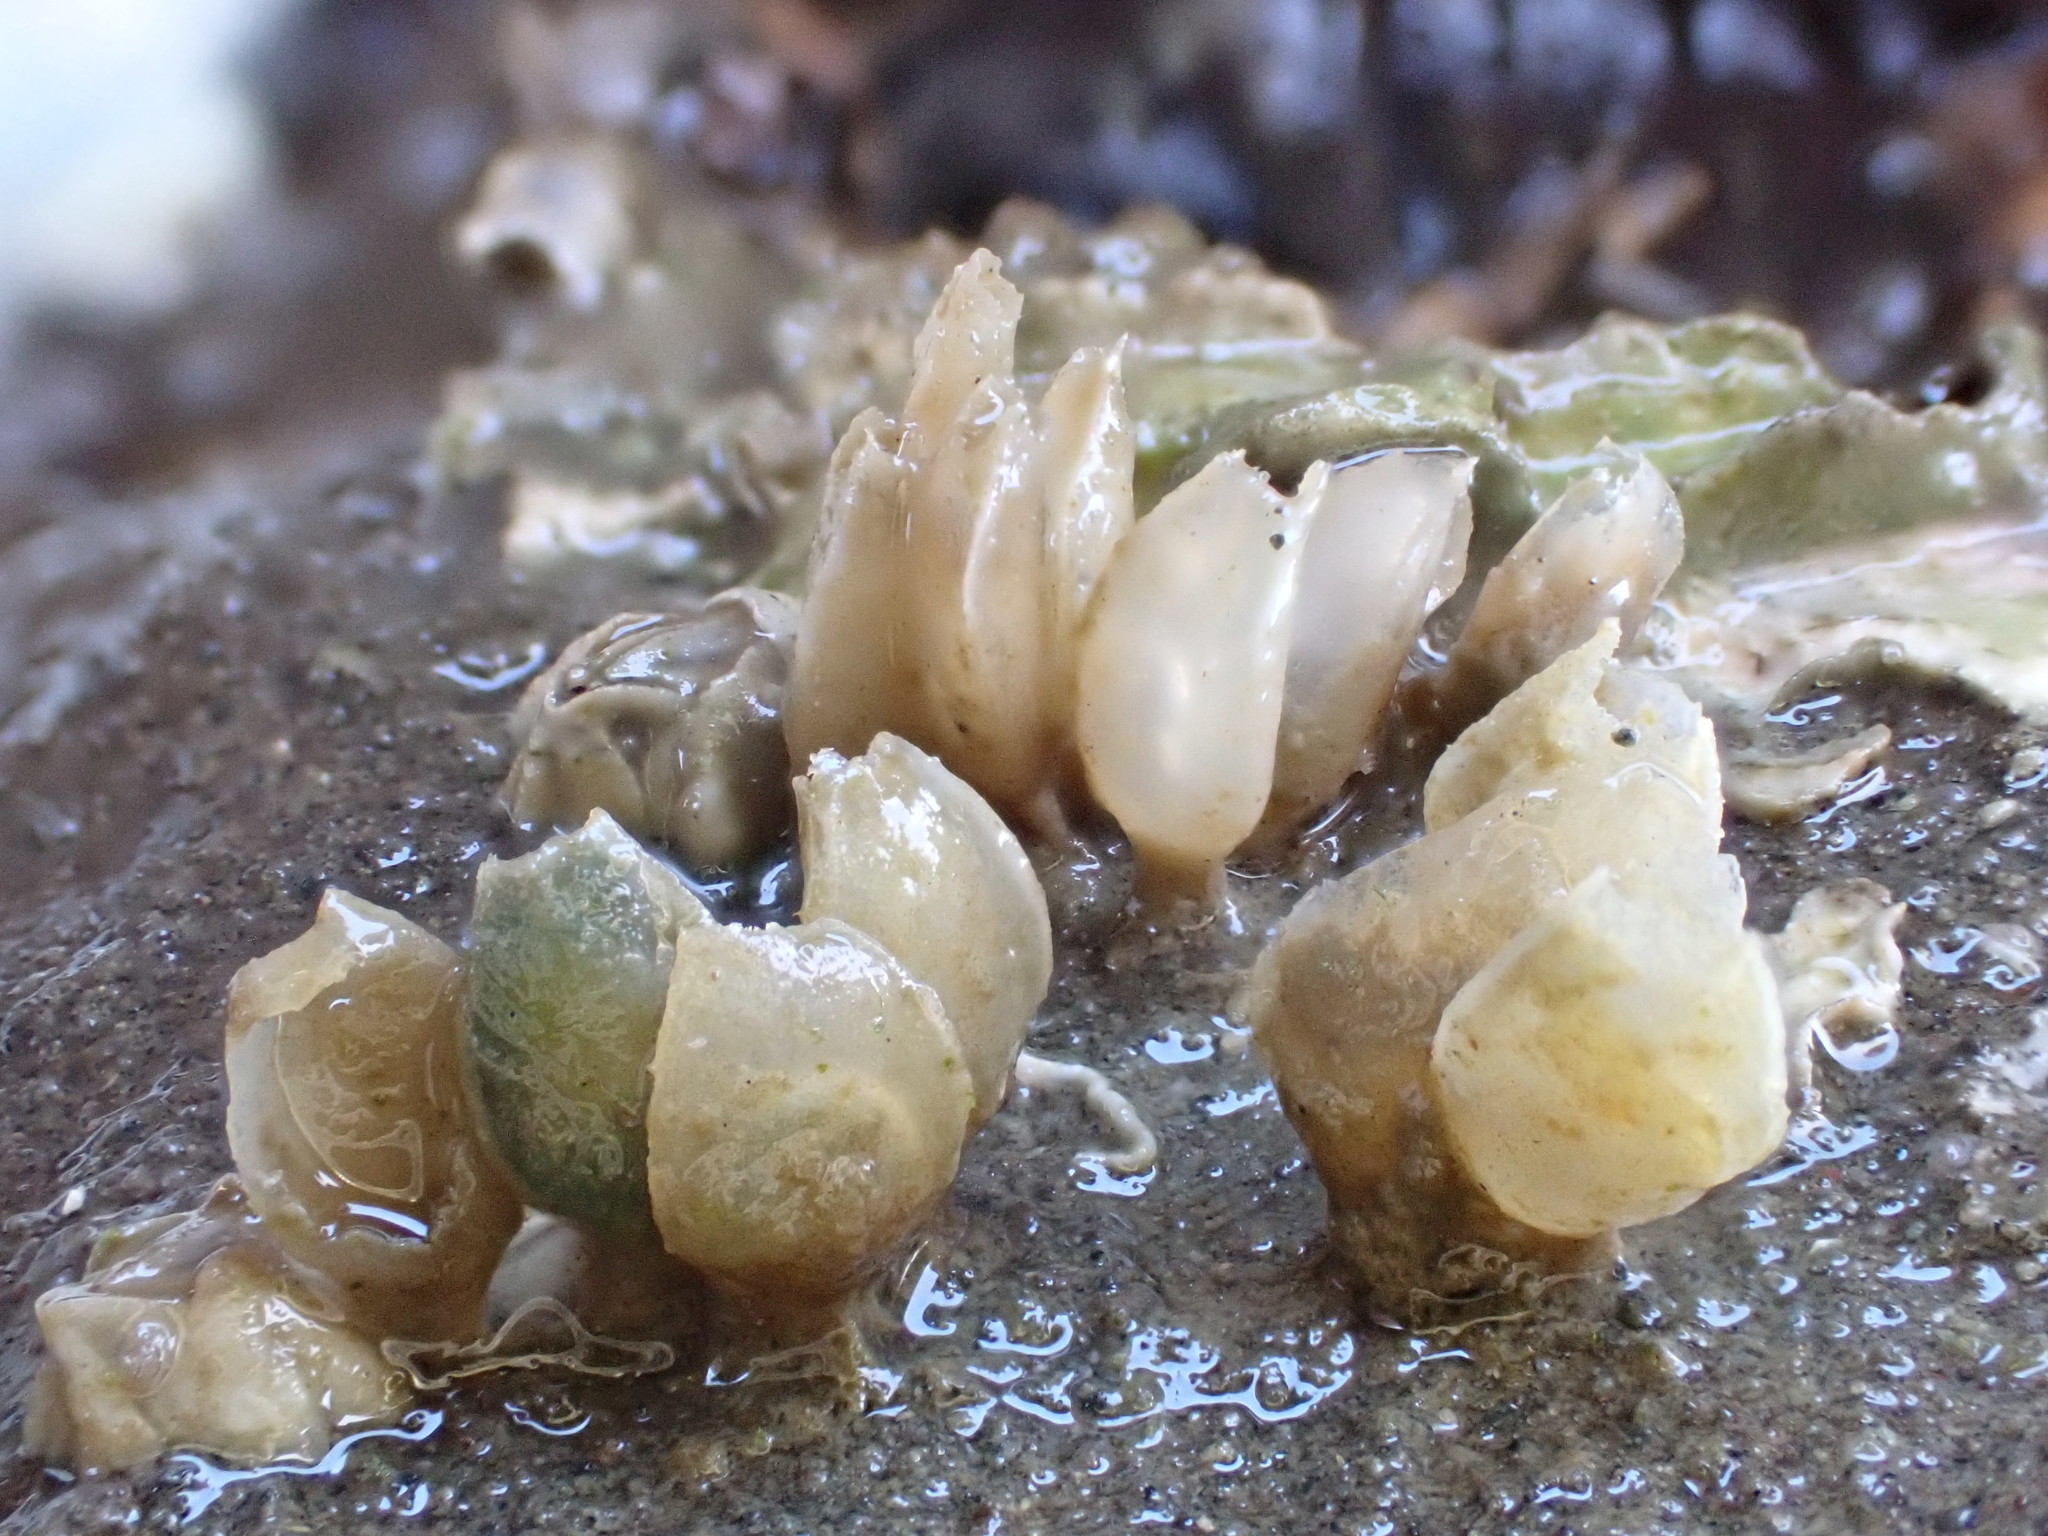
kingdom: Animalia
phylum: Mollusca
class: Gastropoda
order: Neogastropoda
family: Cominellidae
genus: Cominella
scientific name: Cominella maculosa
